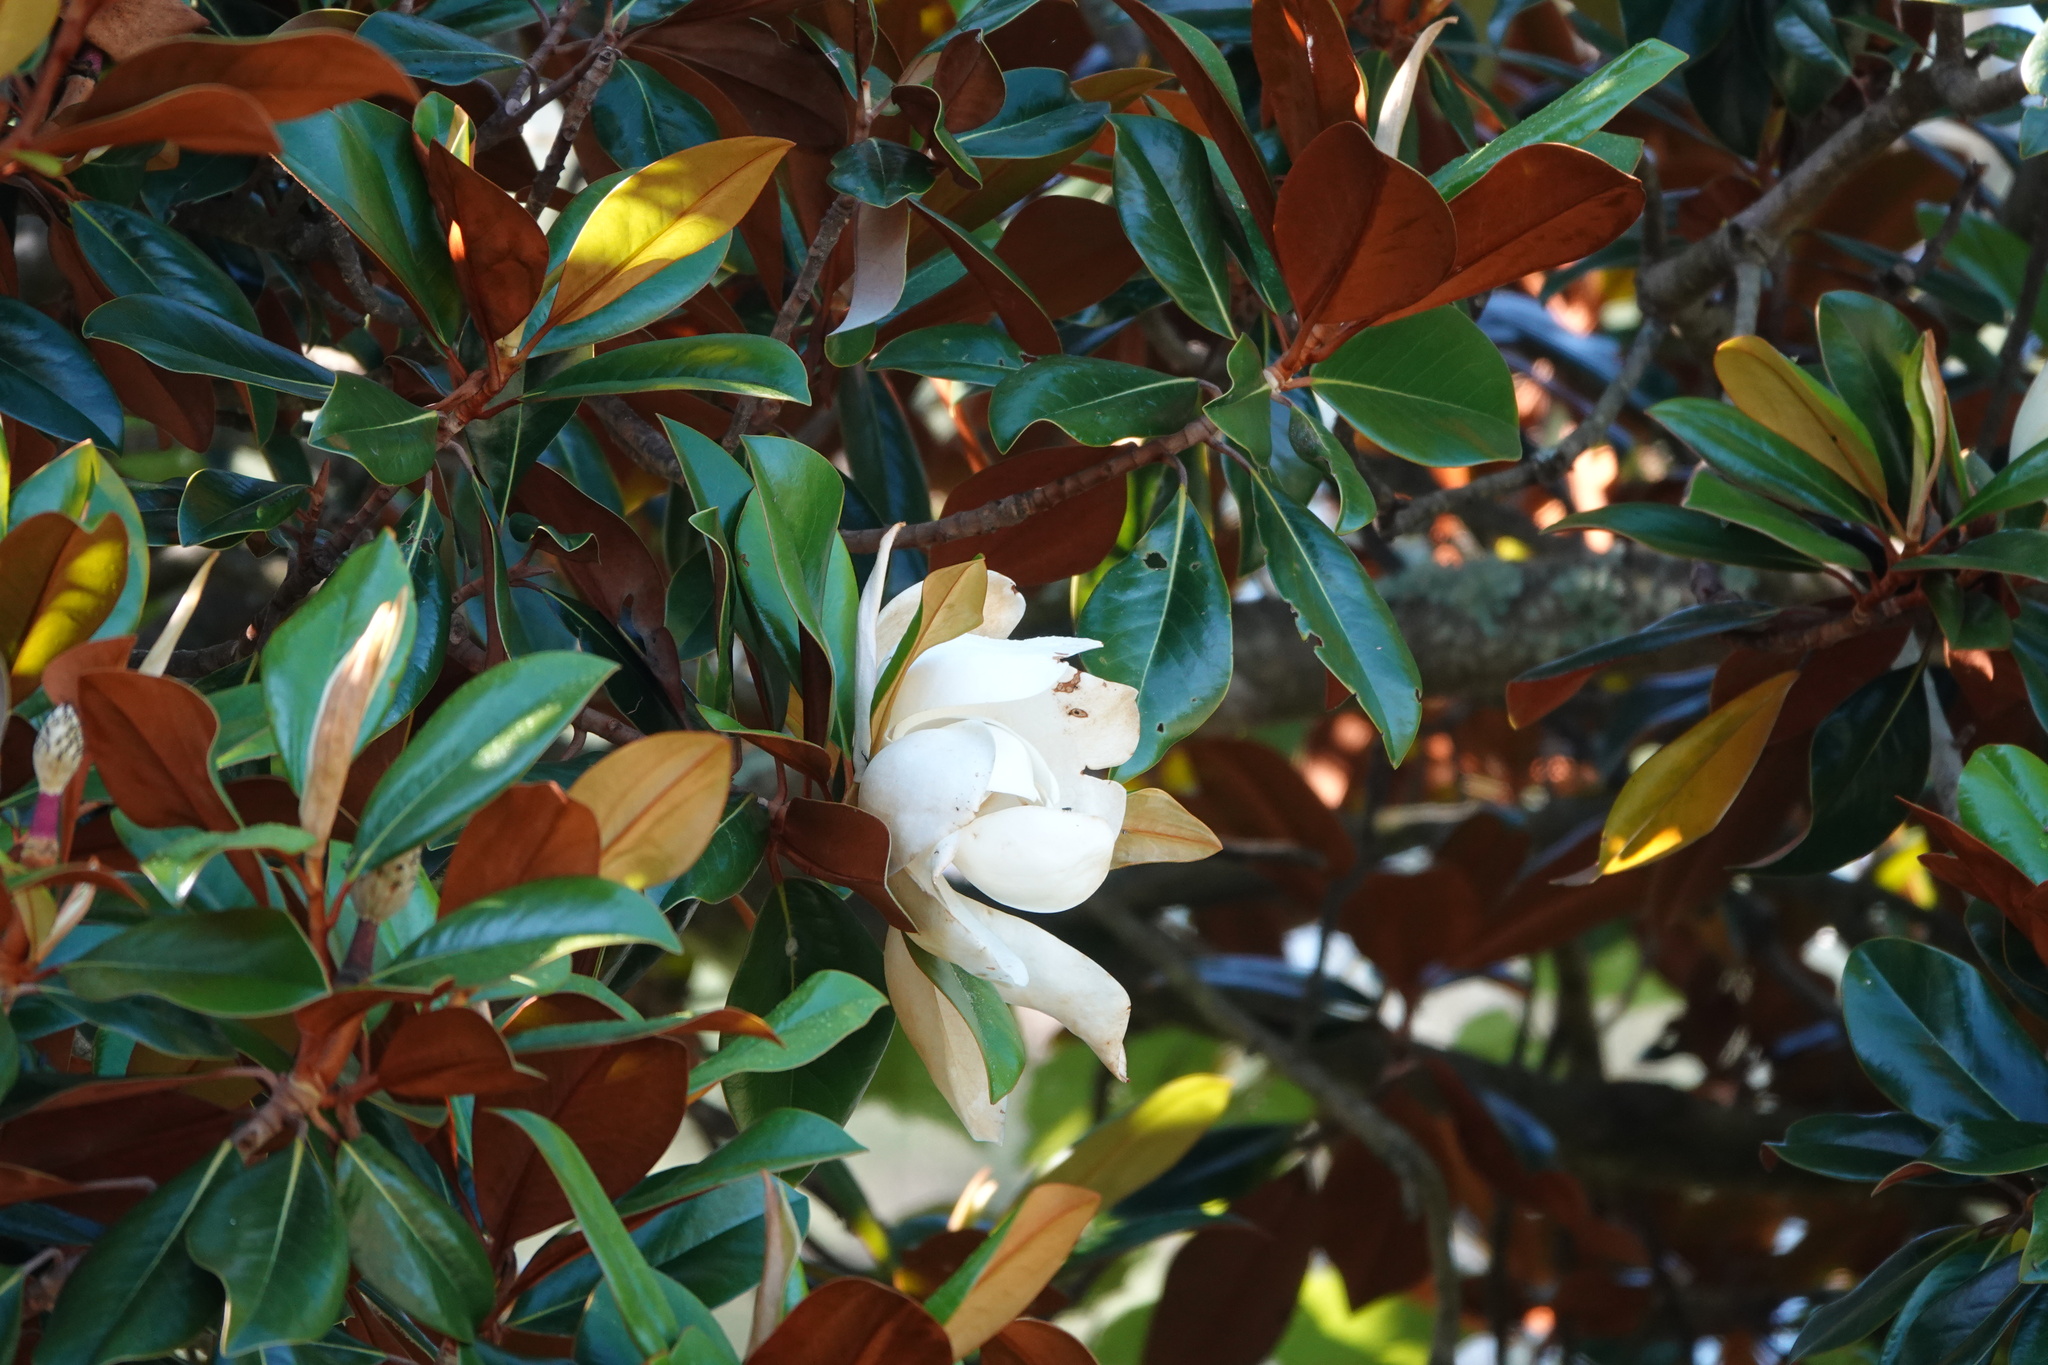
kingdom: Plantae
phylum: Tracheophyta
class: Magnoliopsida
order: Magnoliales
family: Magnoliaceae
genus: Magnolia
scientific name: Magnolia grandiflora
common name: Southern magnolia
